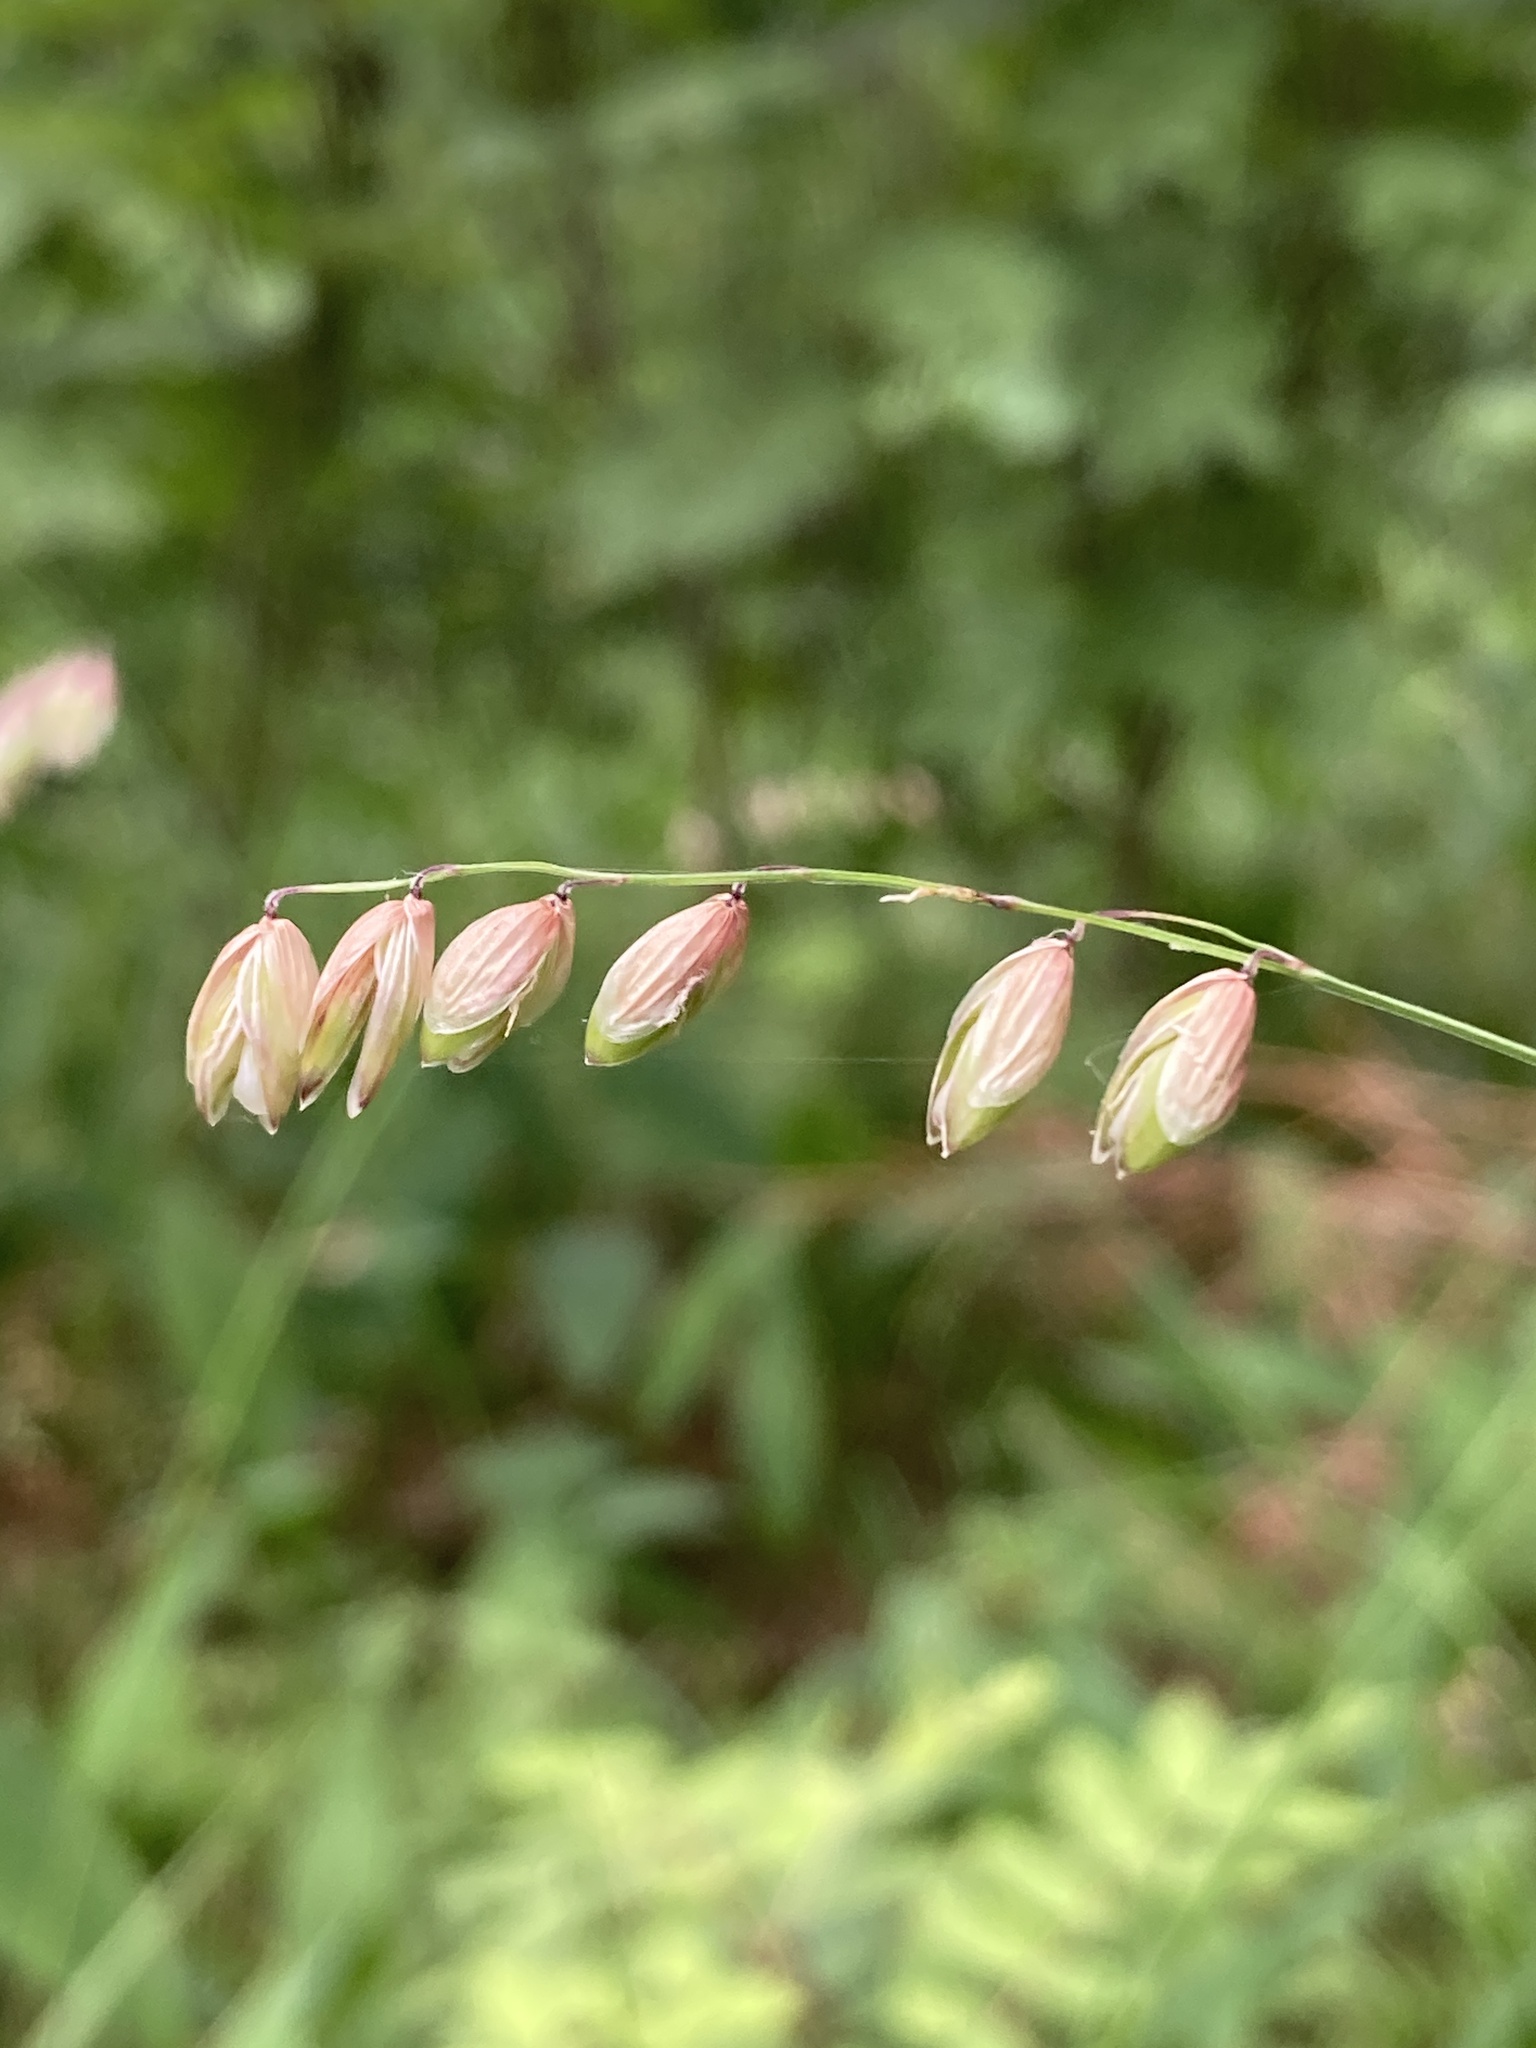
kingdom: Plantae
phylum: Tracheophyta
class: Liliopsida
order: Poales
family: Poaceae
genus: Melica
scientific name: Melica nutans
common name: Mountain melick
